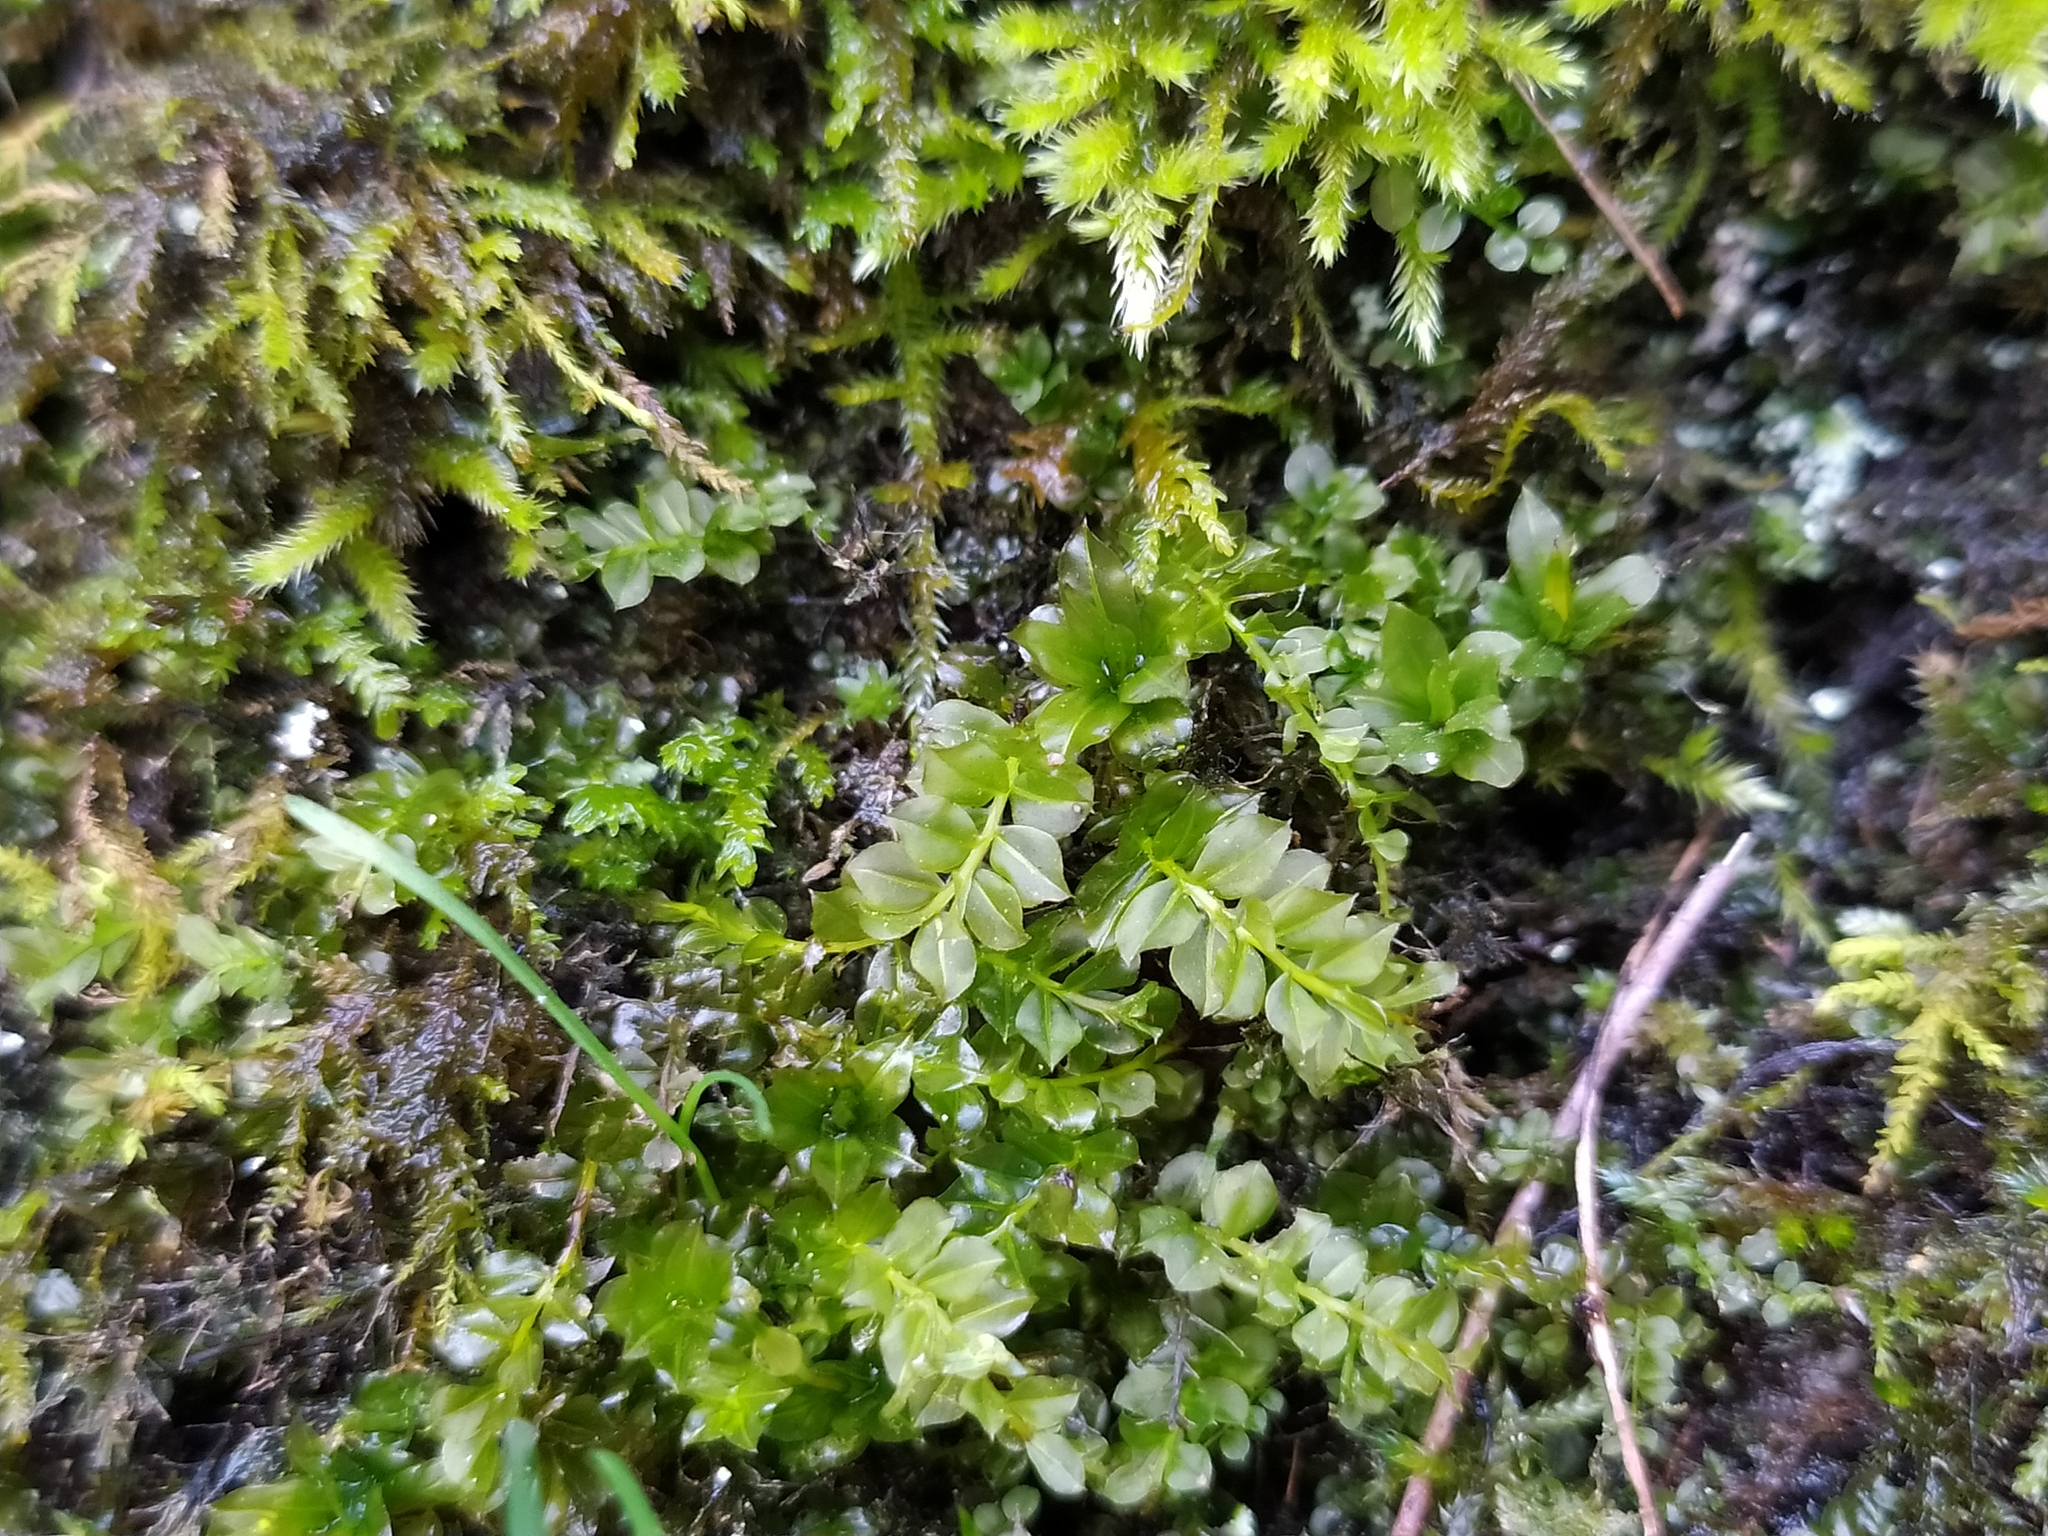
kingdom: Plantae
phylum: Bryophyta
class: Bryopsida
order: Bryales
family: Mniaceae
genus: Plagiomnium
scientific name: Plagiomnium cuspidatum
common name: Woodsy leafy moss
